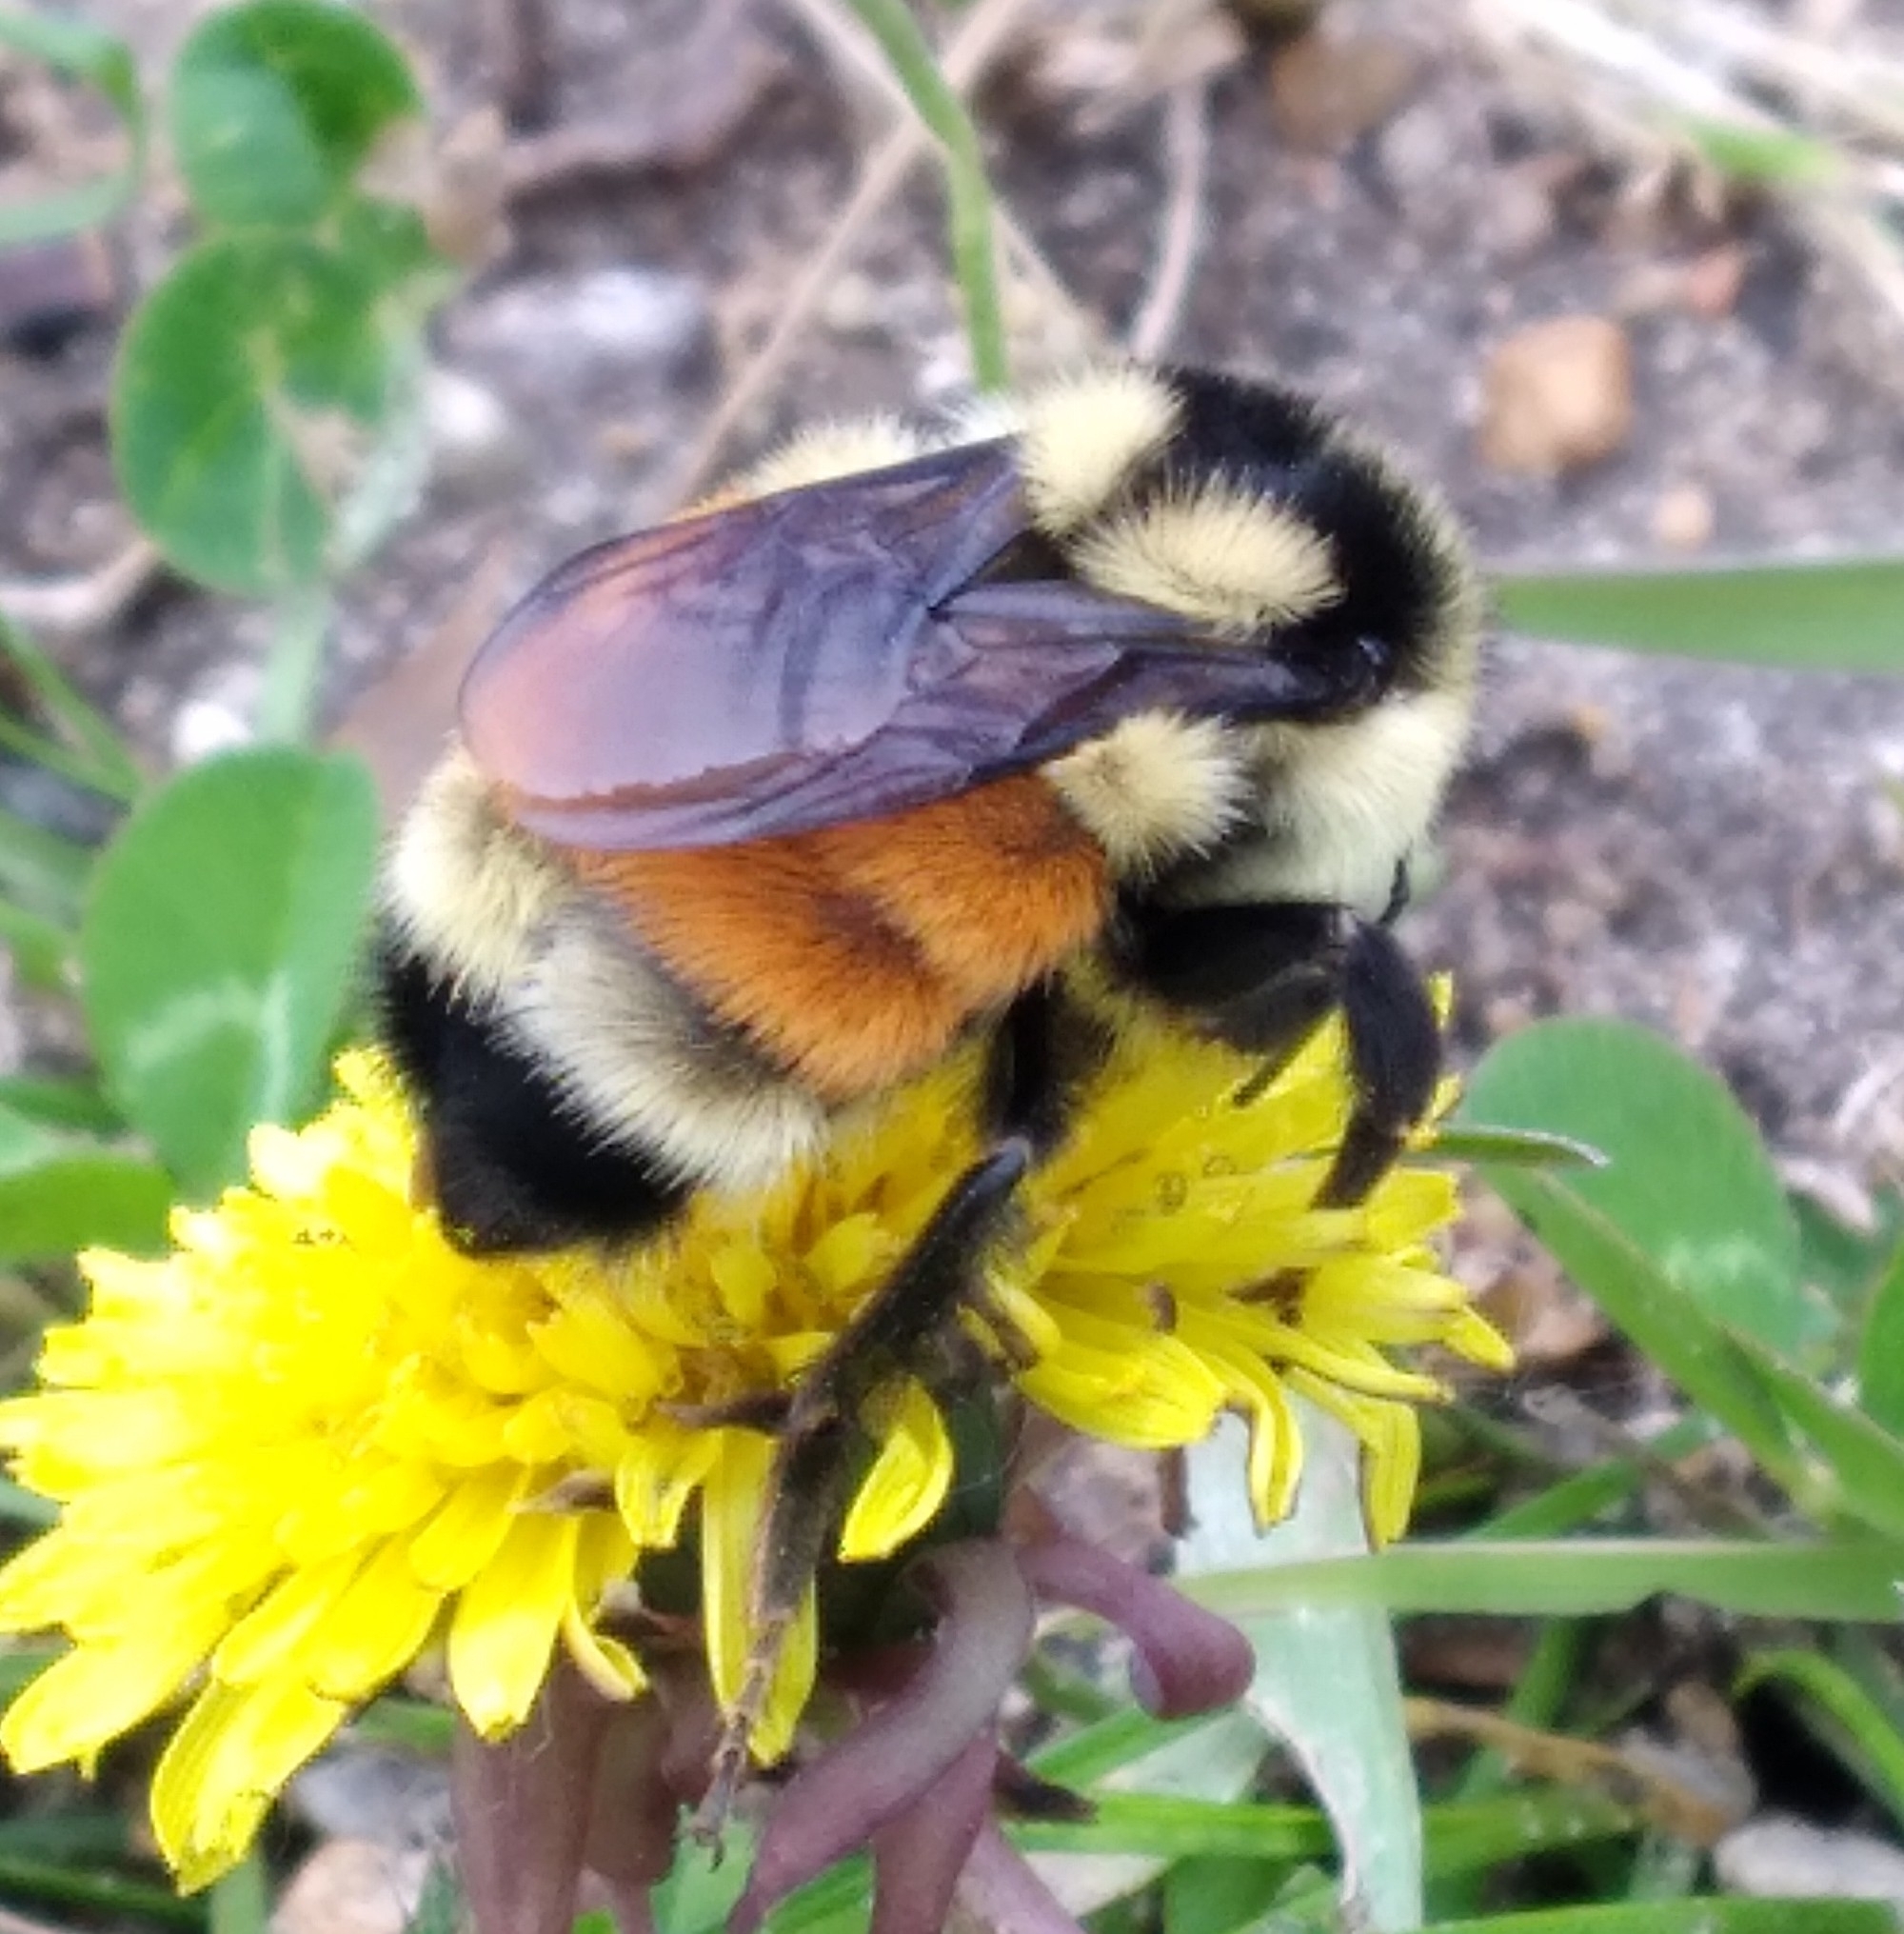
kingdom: Animalia
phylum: Arthropoda
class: Insecta
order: Hymenoptera
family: Apidae
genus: Bombus
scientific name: Bombus ternarius
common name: Tri-colored bumble bee
